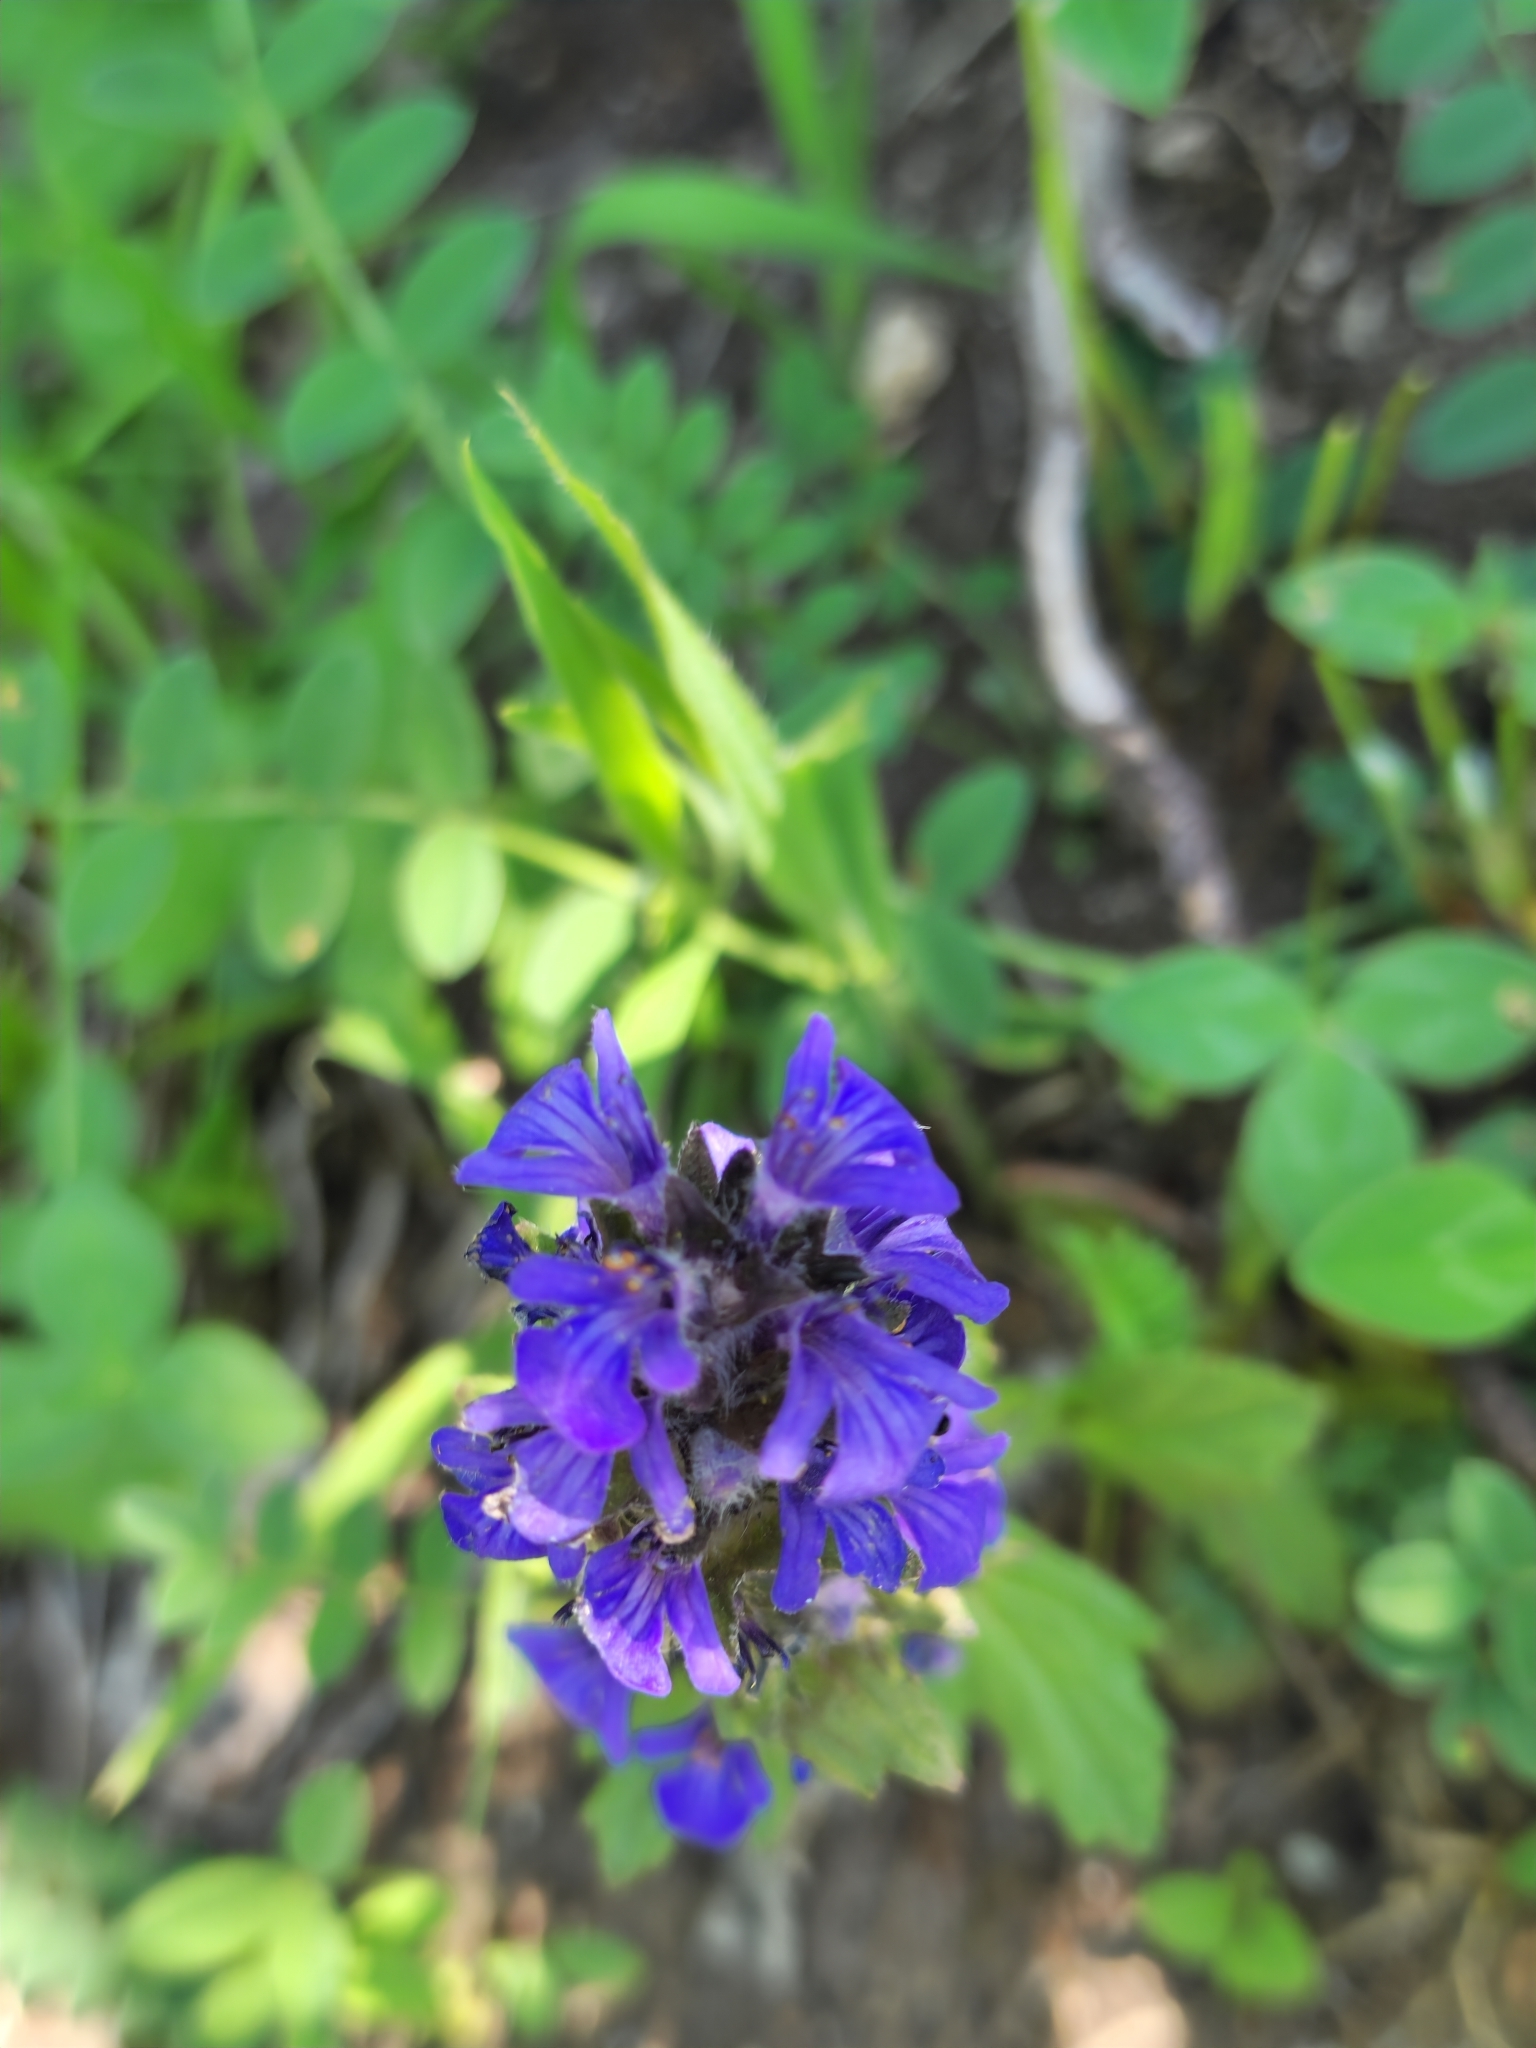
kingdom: Plantae
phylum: Tracheophyta
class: Magnoliopsida
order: Lamiales
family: Lamiaceae
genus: Ajuga
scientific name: Ajuga genevensis
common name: Blue bugle
